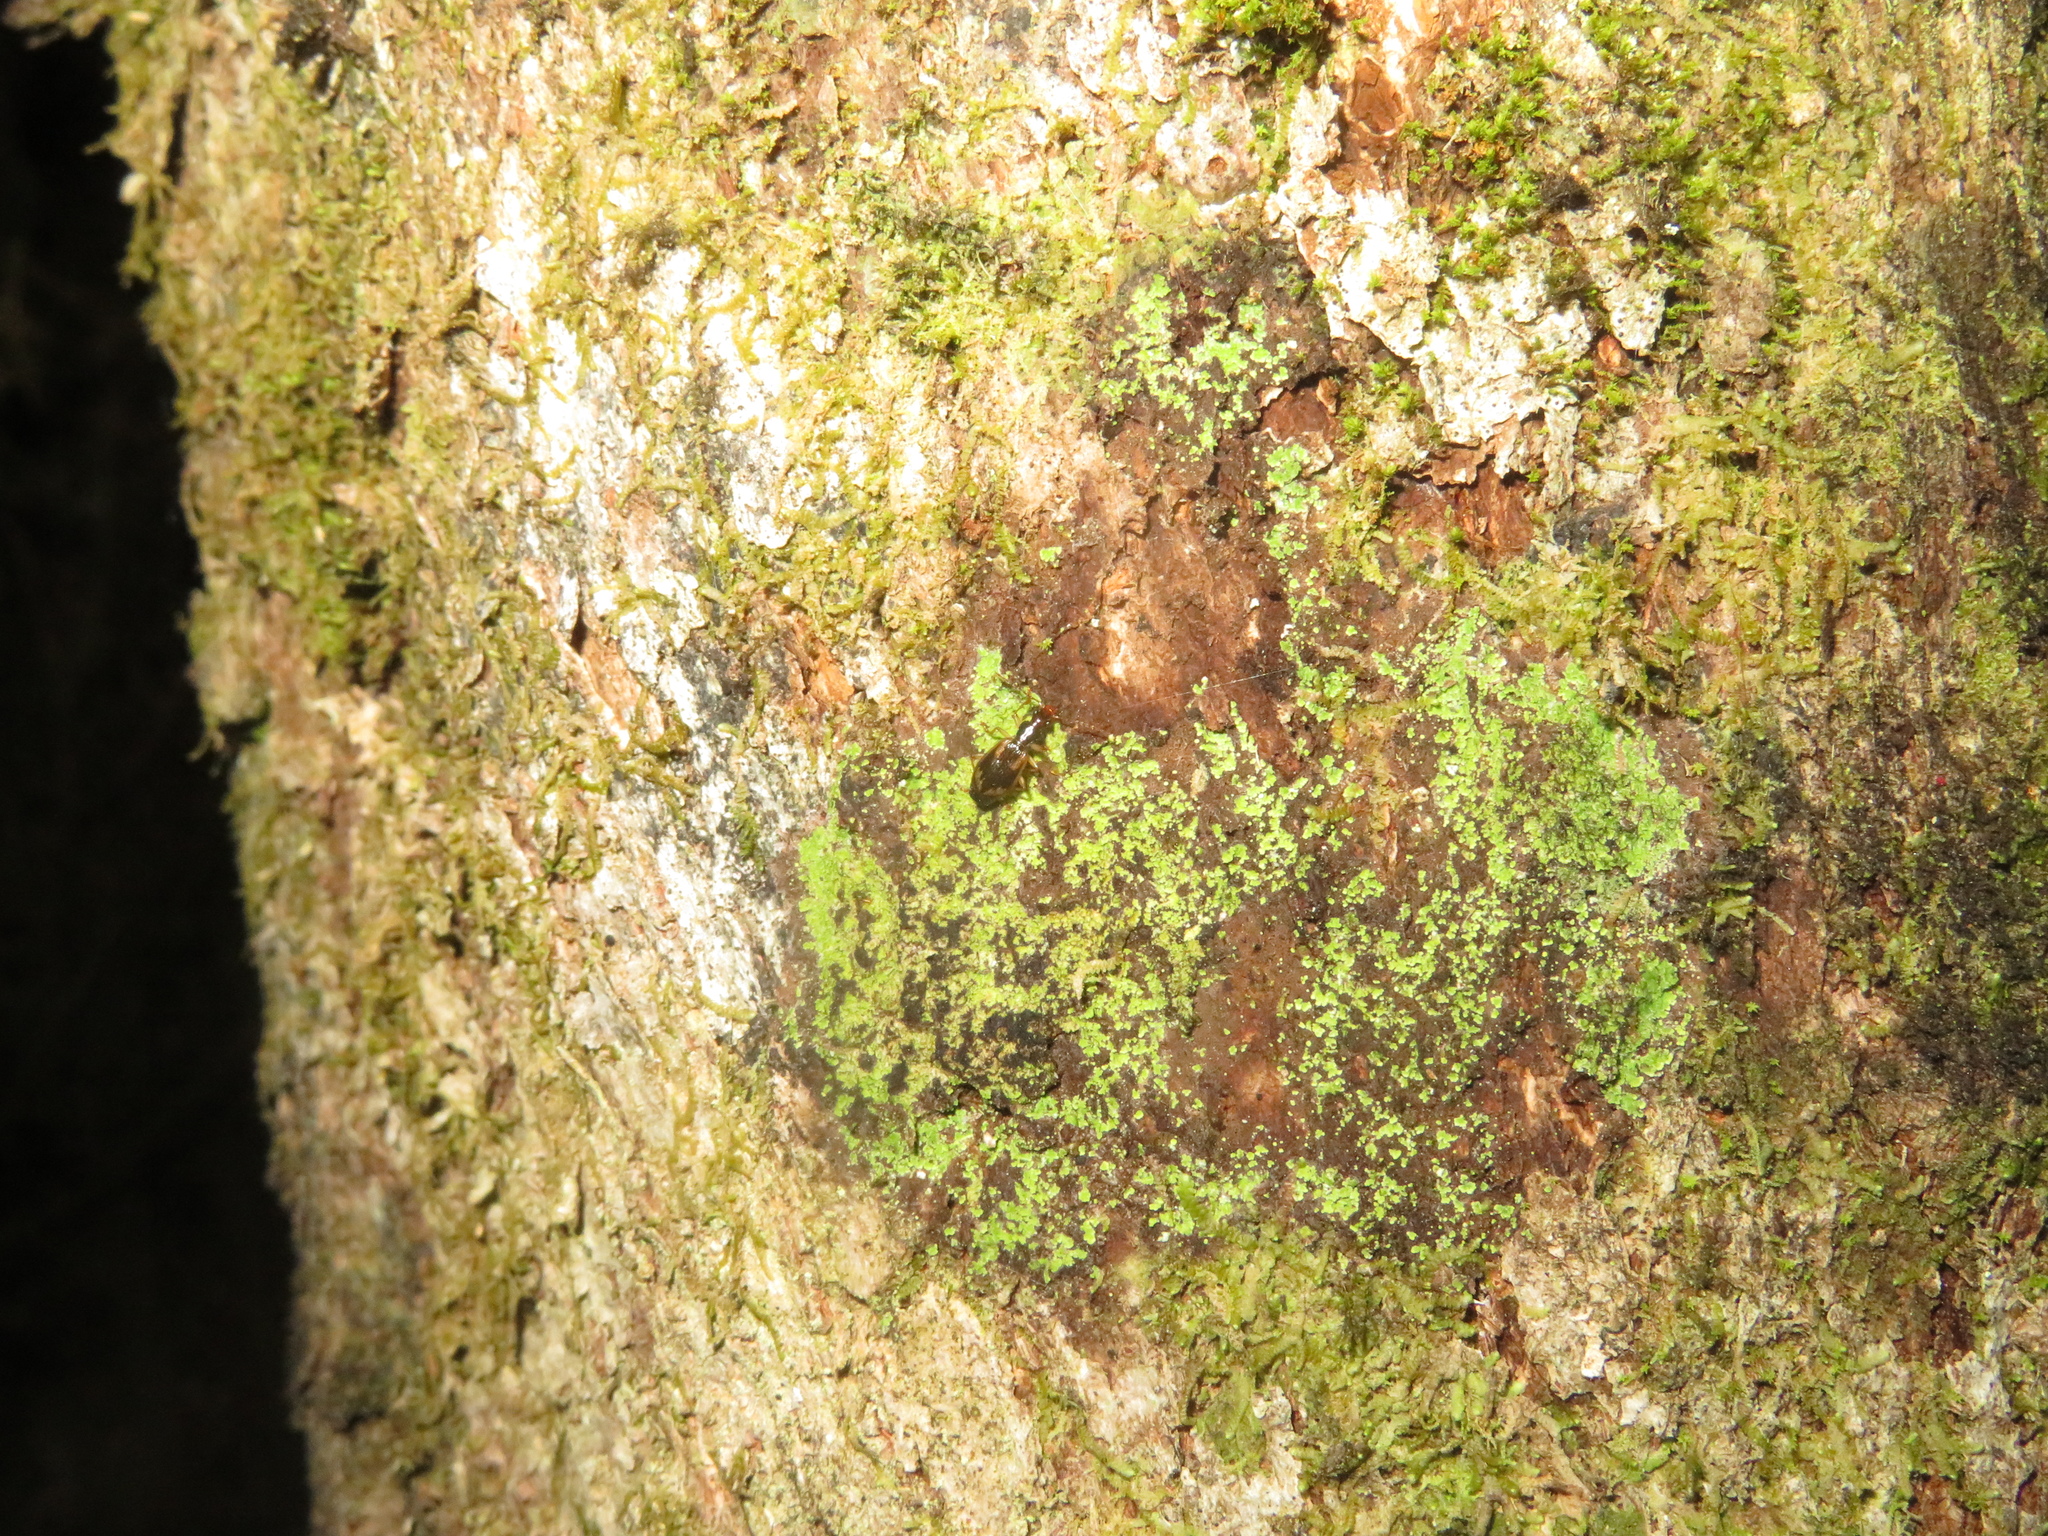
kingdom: Animalia
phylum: Arthropoda
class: Insecta
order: Coleoptera
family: Carabidae
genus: Demetrida
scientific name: Demetrida nasuta
